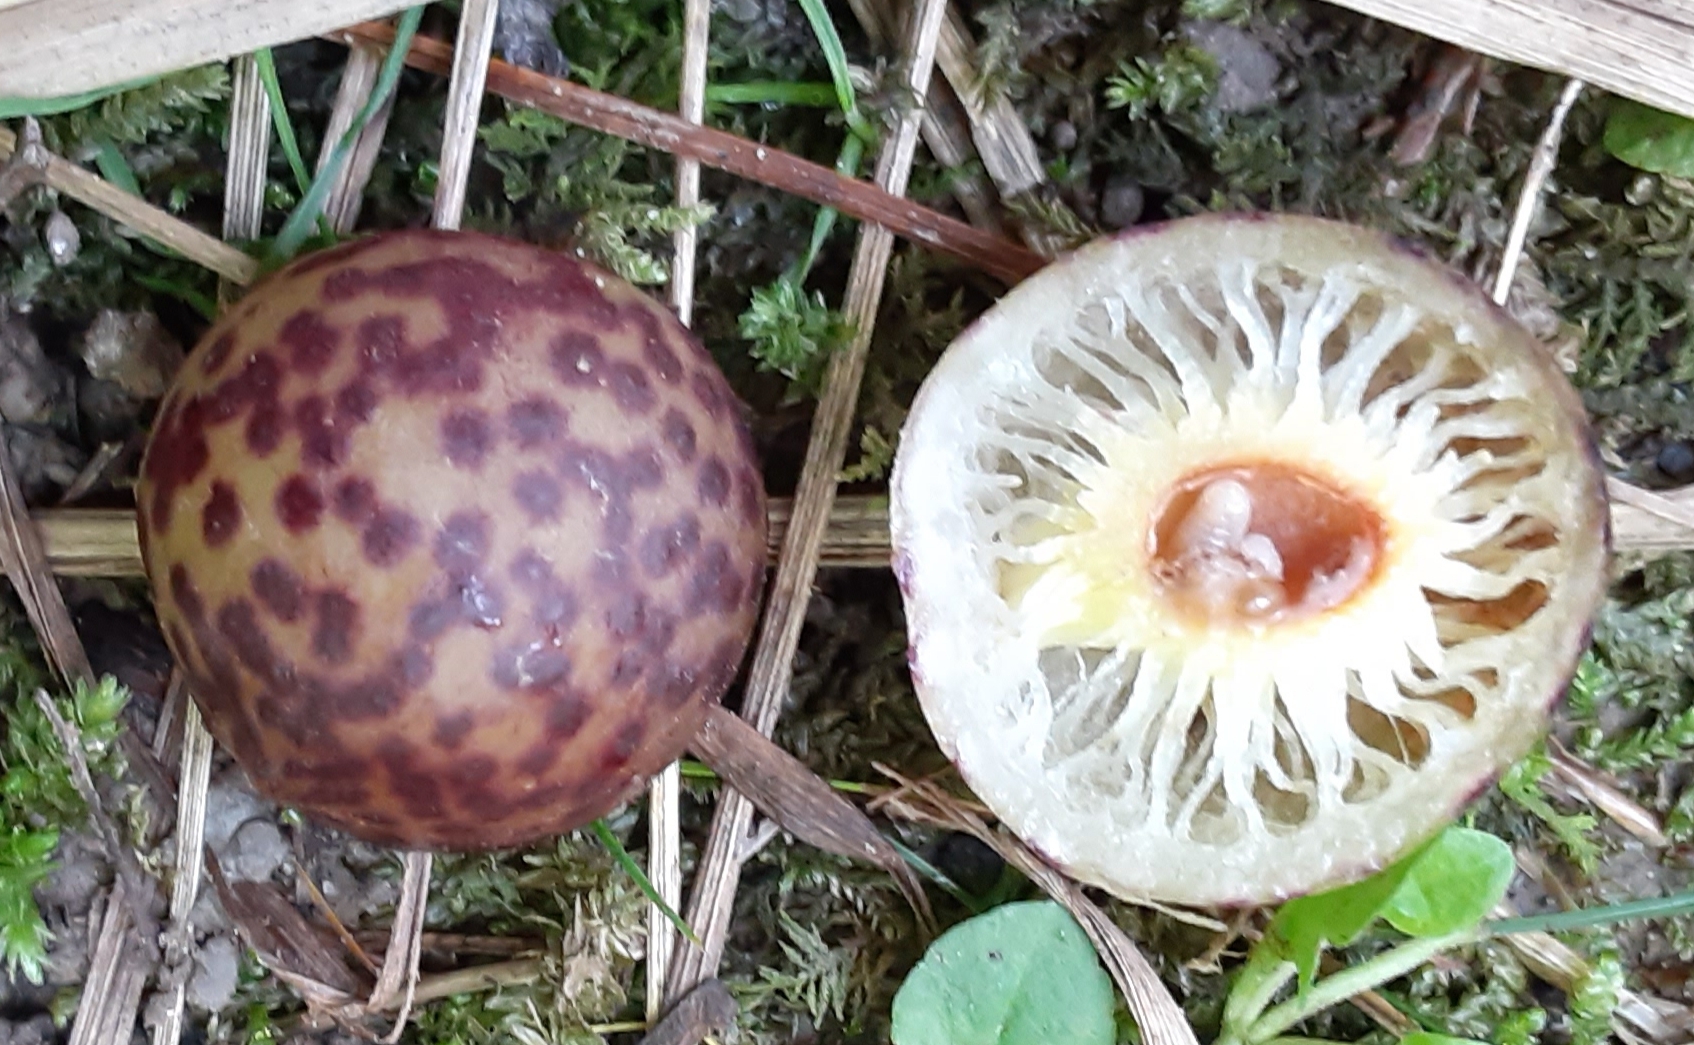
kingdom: Animalia
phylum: Arthropoda
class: Insecta
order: Hymenoptera
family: Cynipidae
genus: Amphibolips
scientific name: Amphibolips
